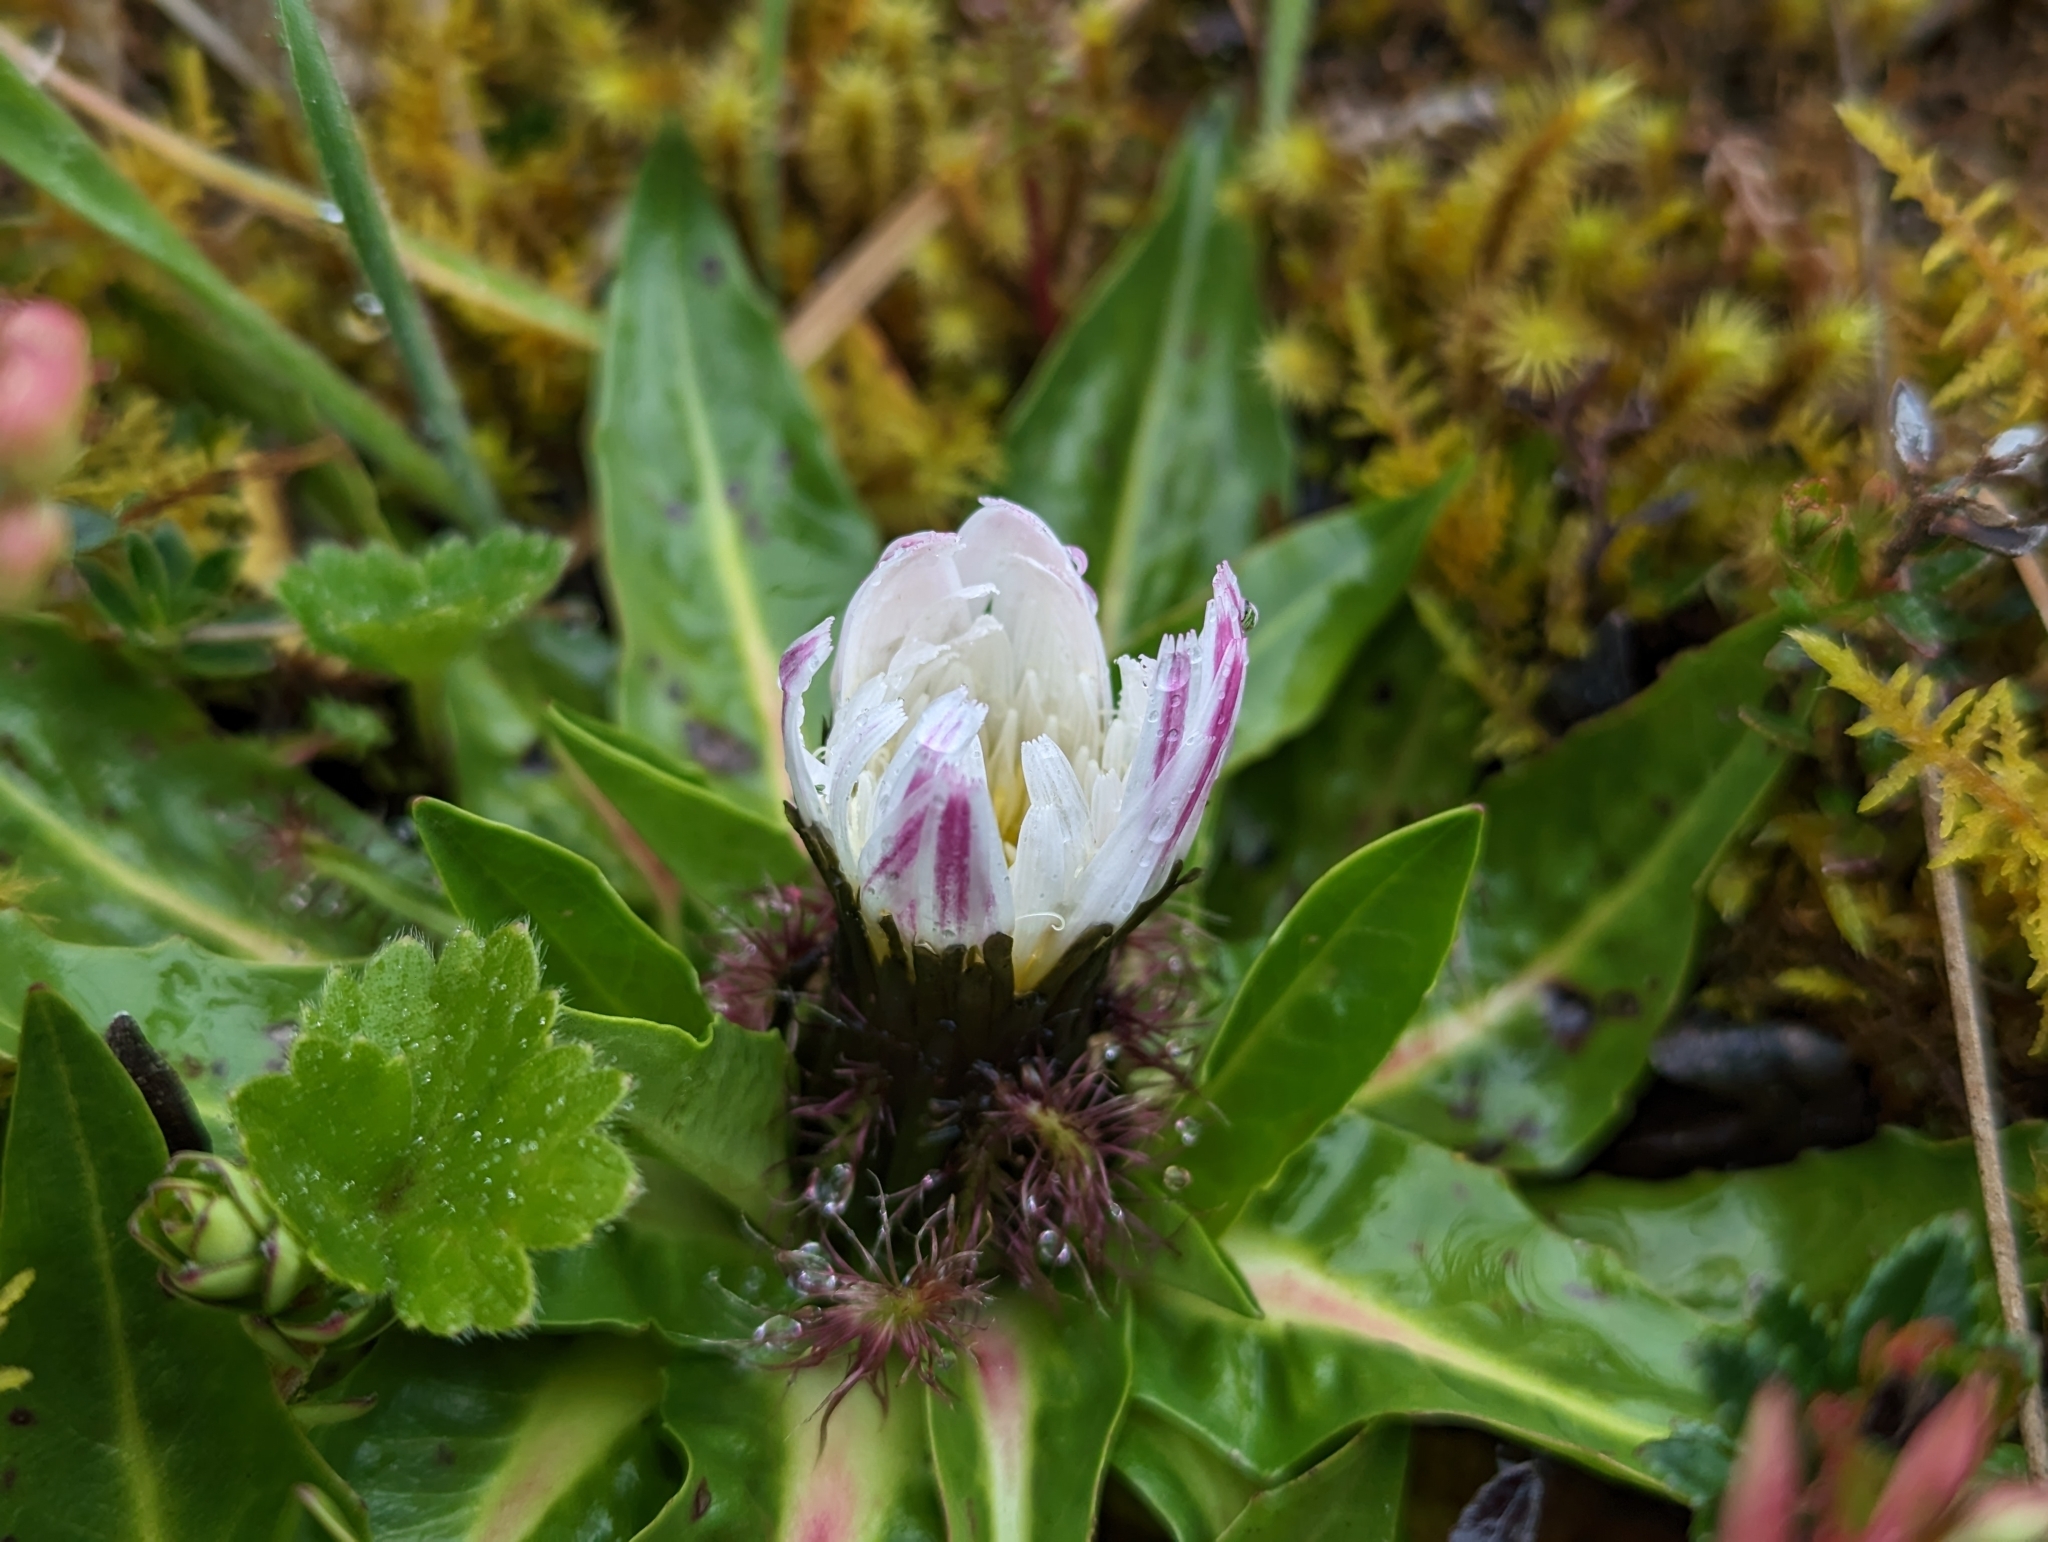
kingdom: Plantae
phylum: Tracheophyta
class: Magnoliopsida
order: Asterales
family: Asteraceae
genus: Hypochaeris
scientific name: Hypochaeris sessiliflora
